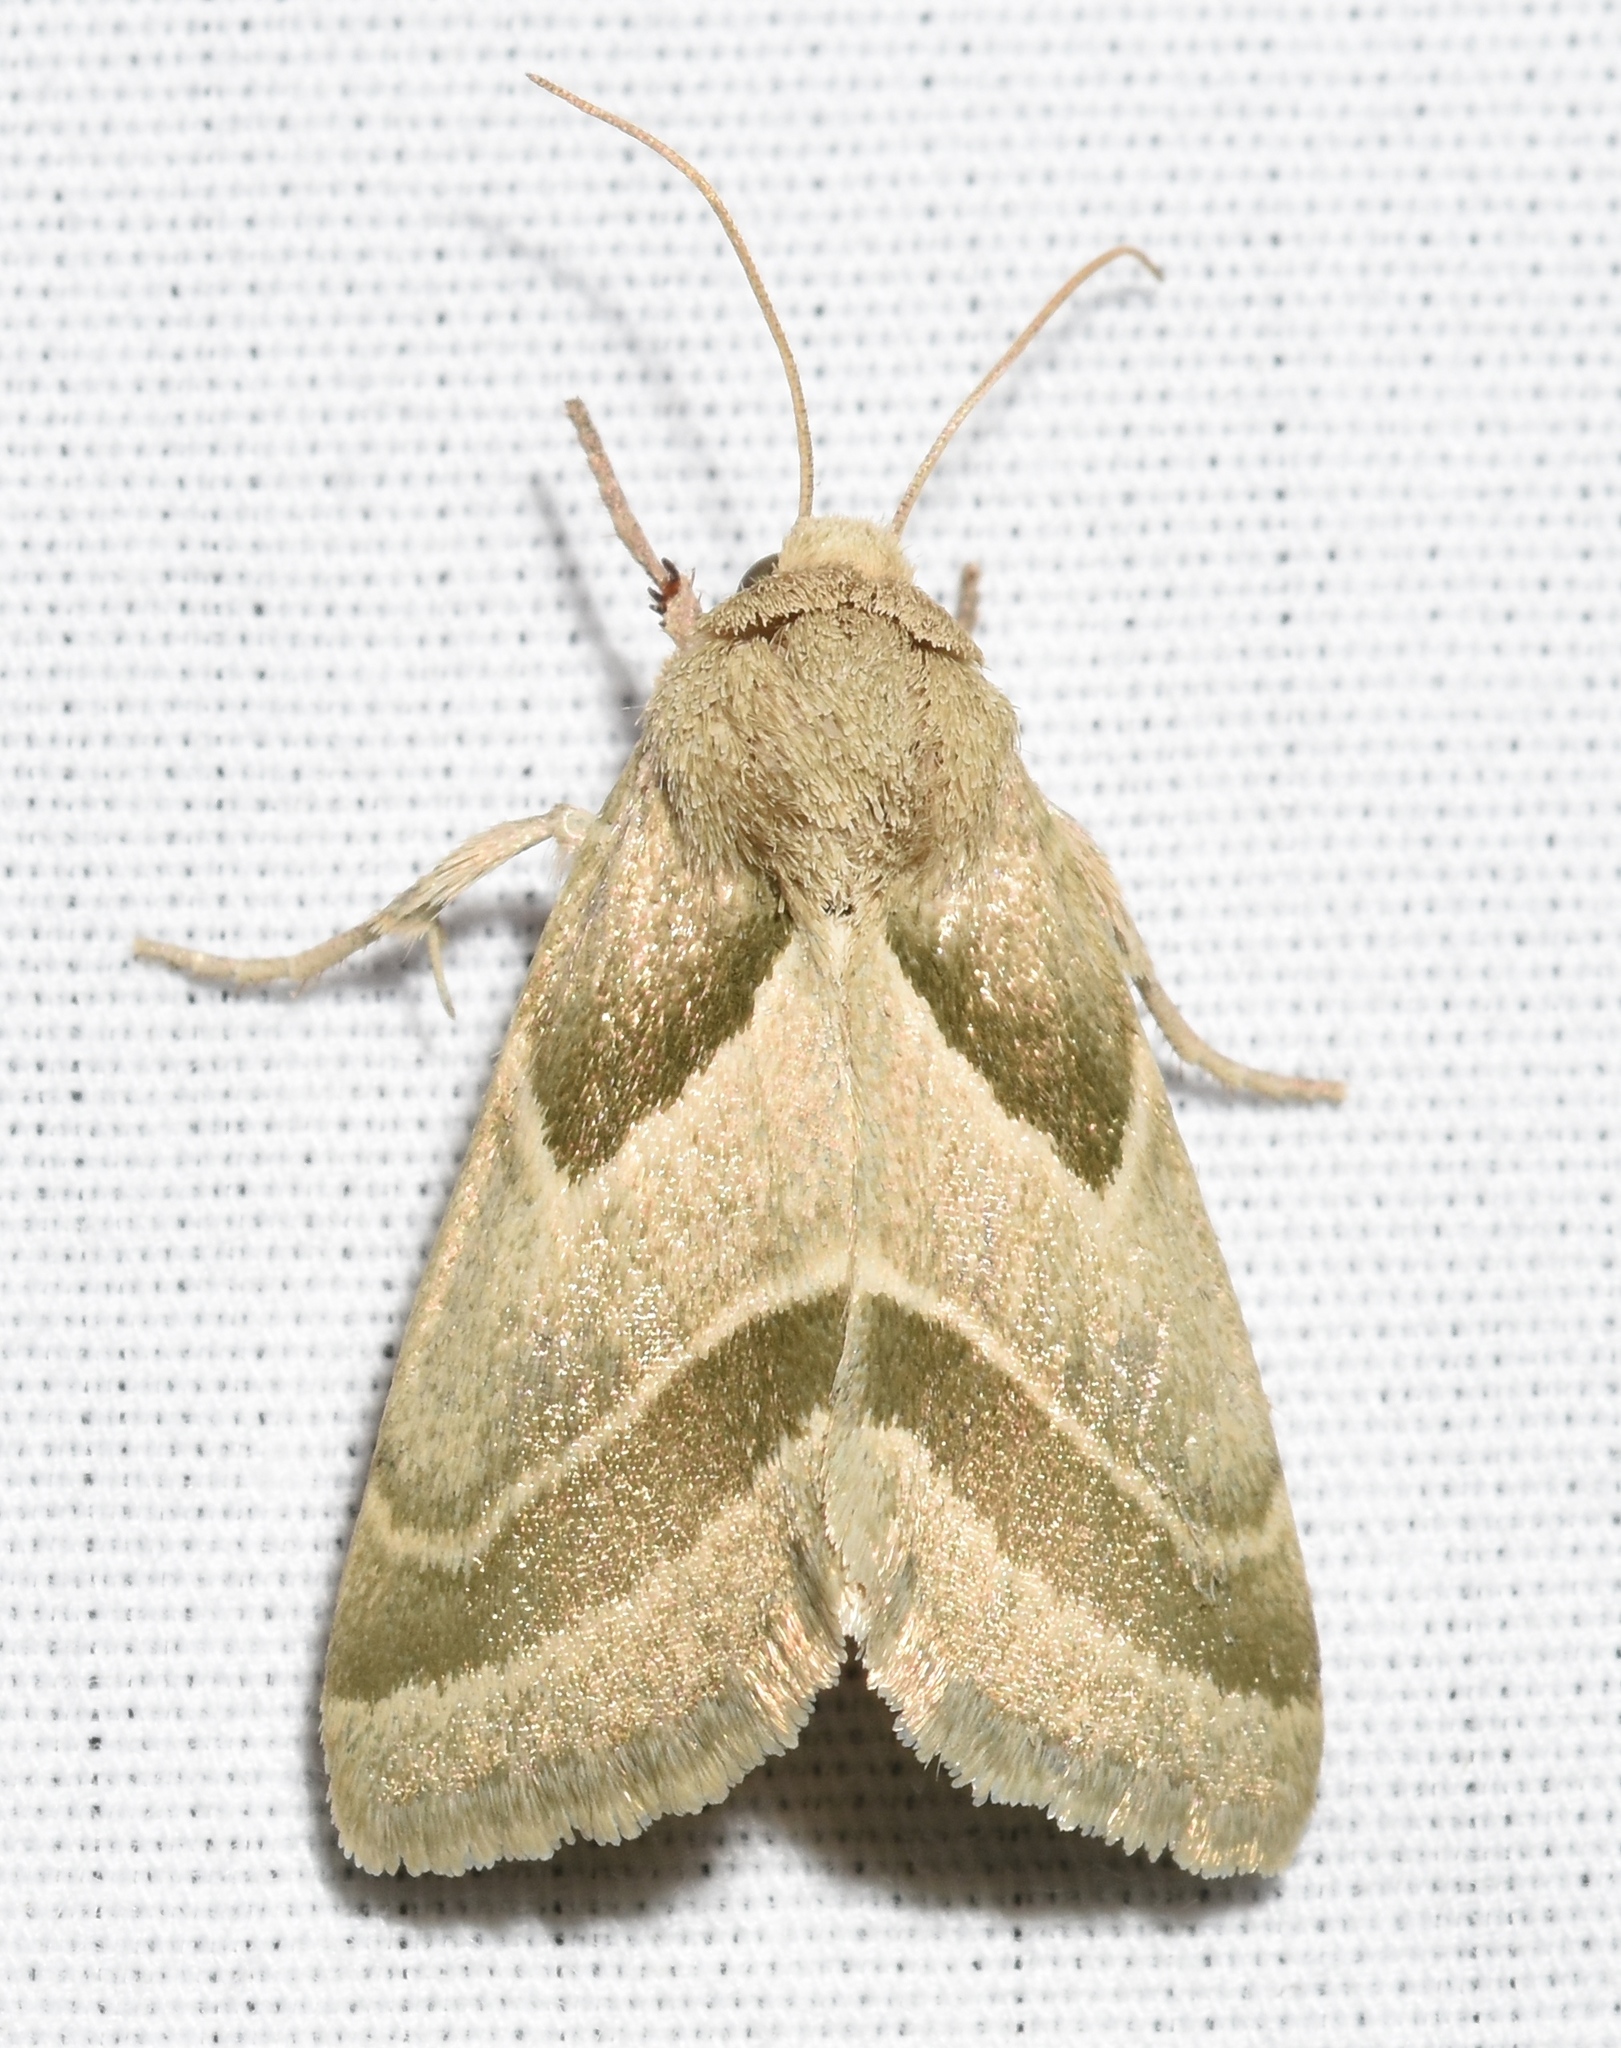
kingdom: Animalia
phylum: Arthropoda
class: Insecta
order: Lepidoptera
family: Noctuidae
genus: Schinia
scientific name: Schinia grandimedia
